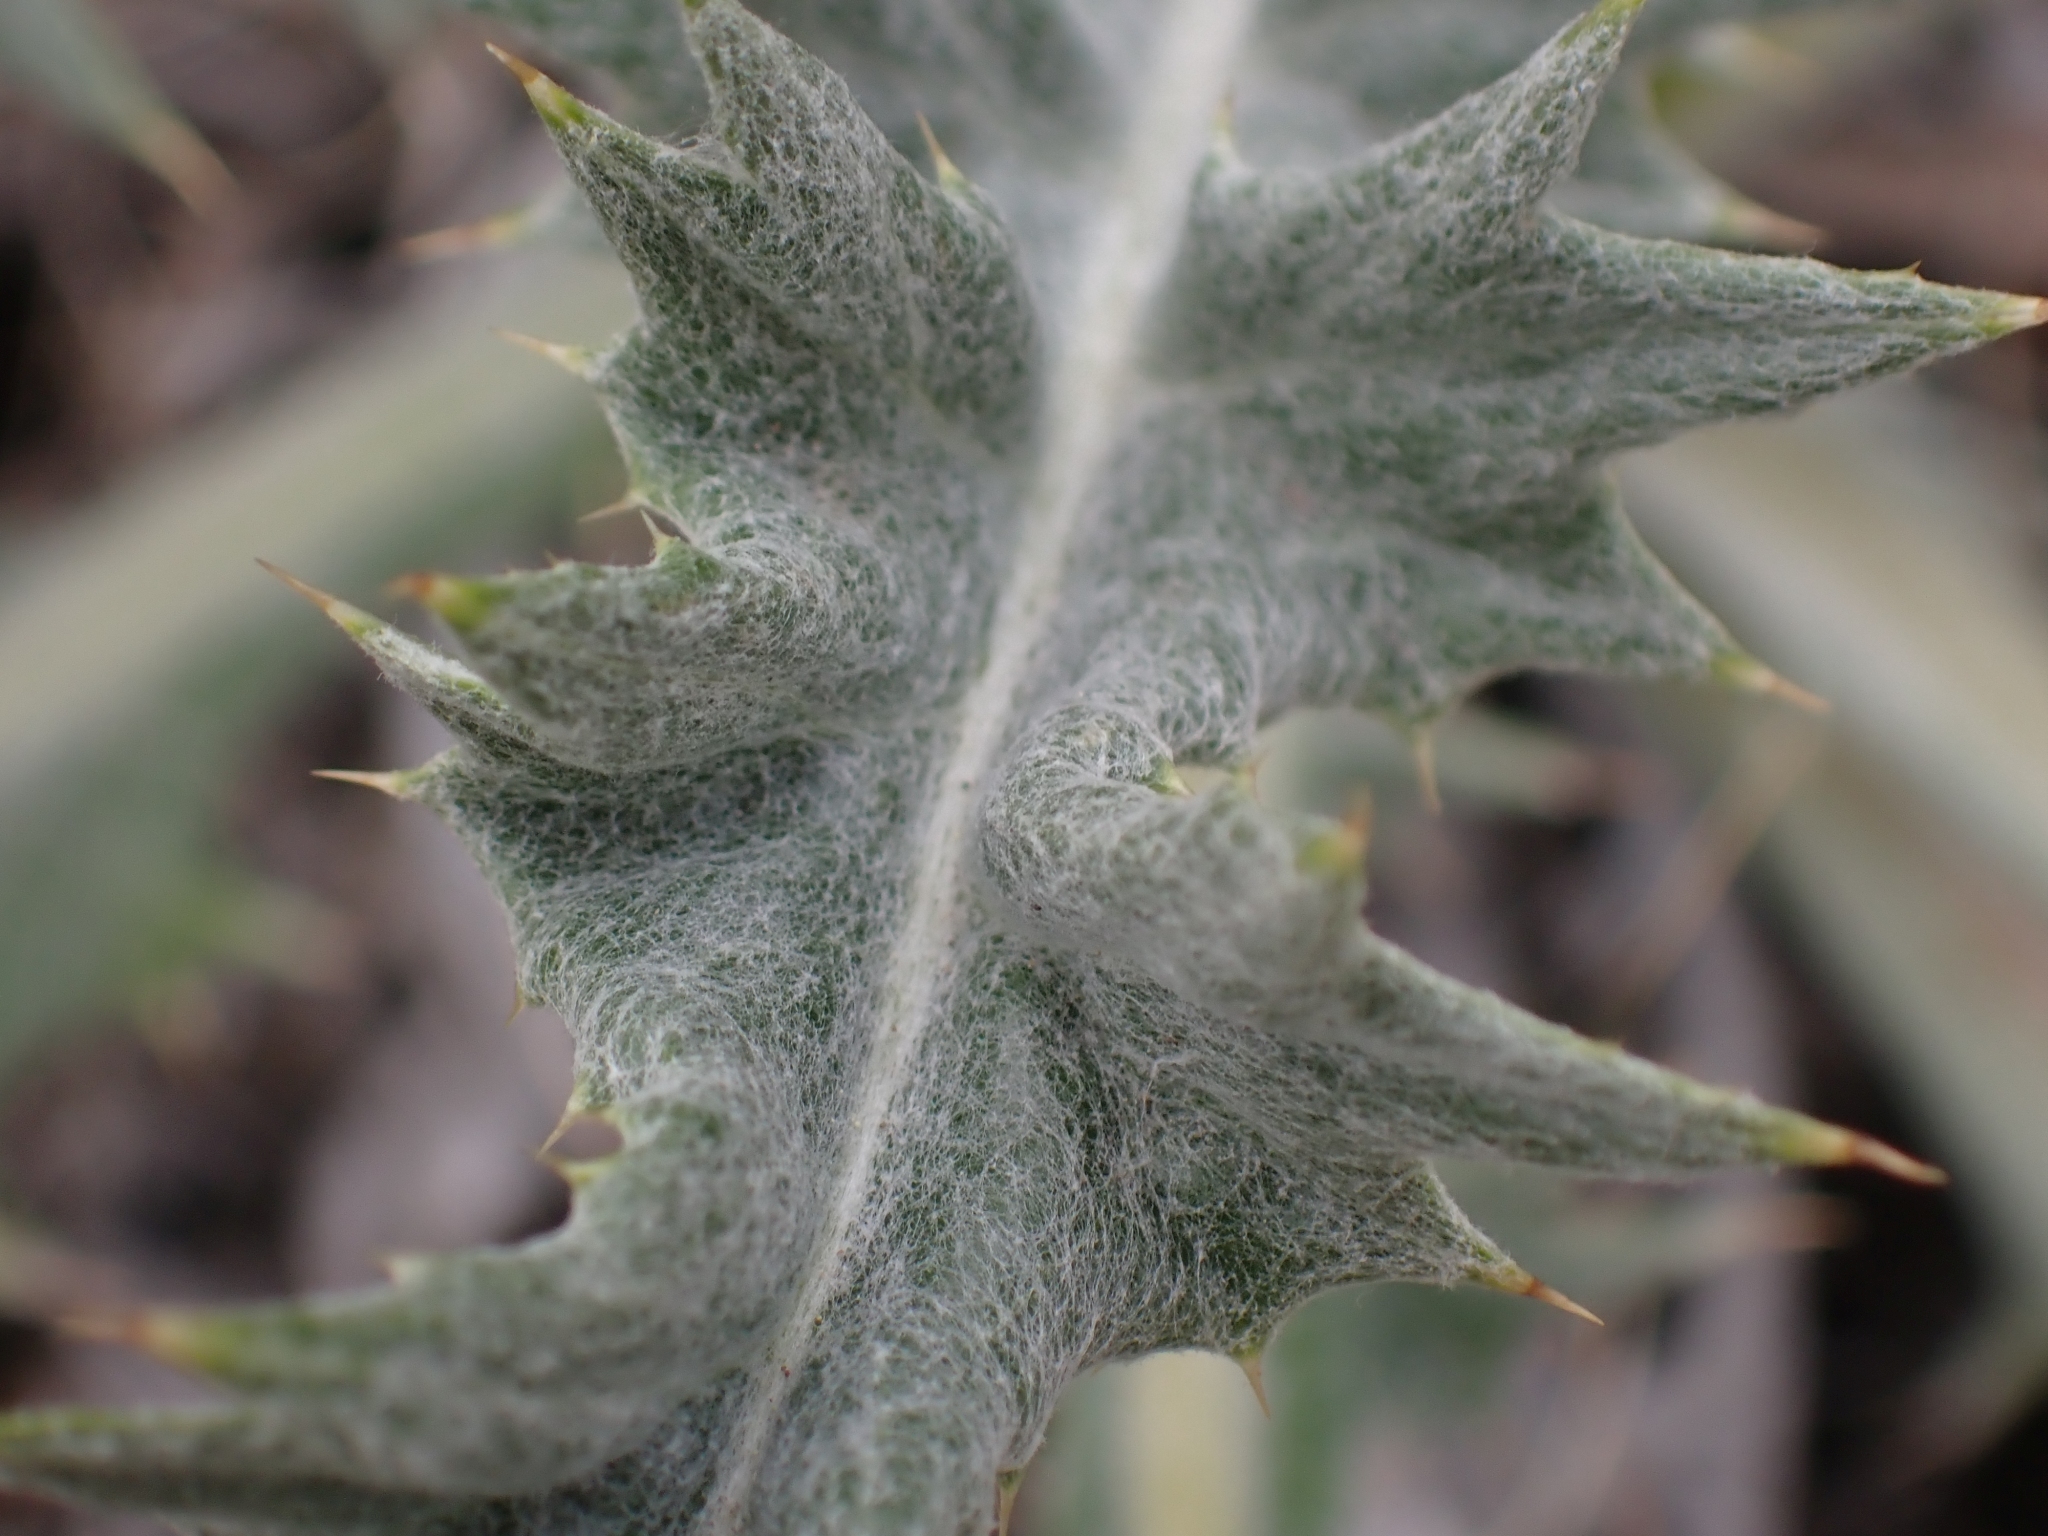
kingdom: Plantae
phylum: Tracheophyta
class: Magnoliopsida
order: Asterales
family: Asteraceae
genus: Cirsium
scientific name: Cirsium undulatum
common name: Pasture thistle
